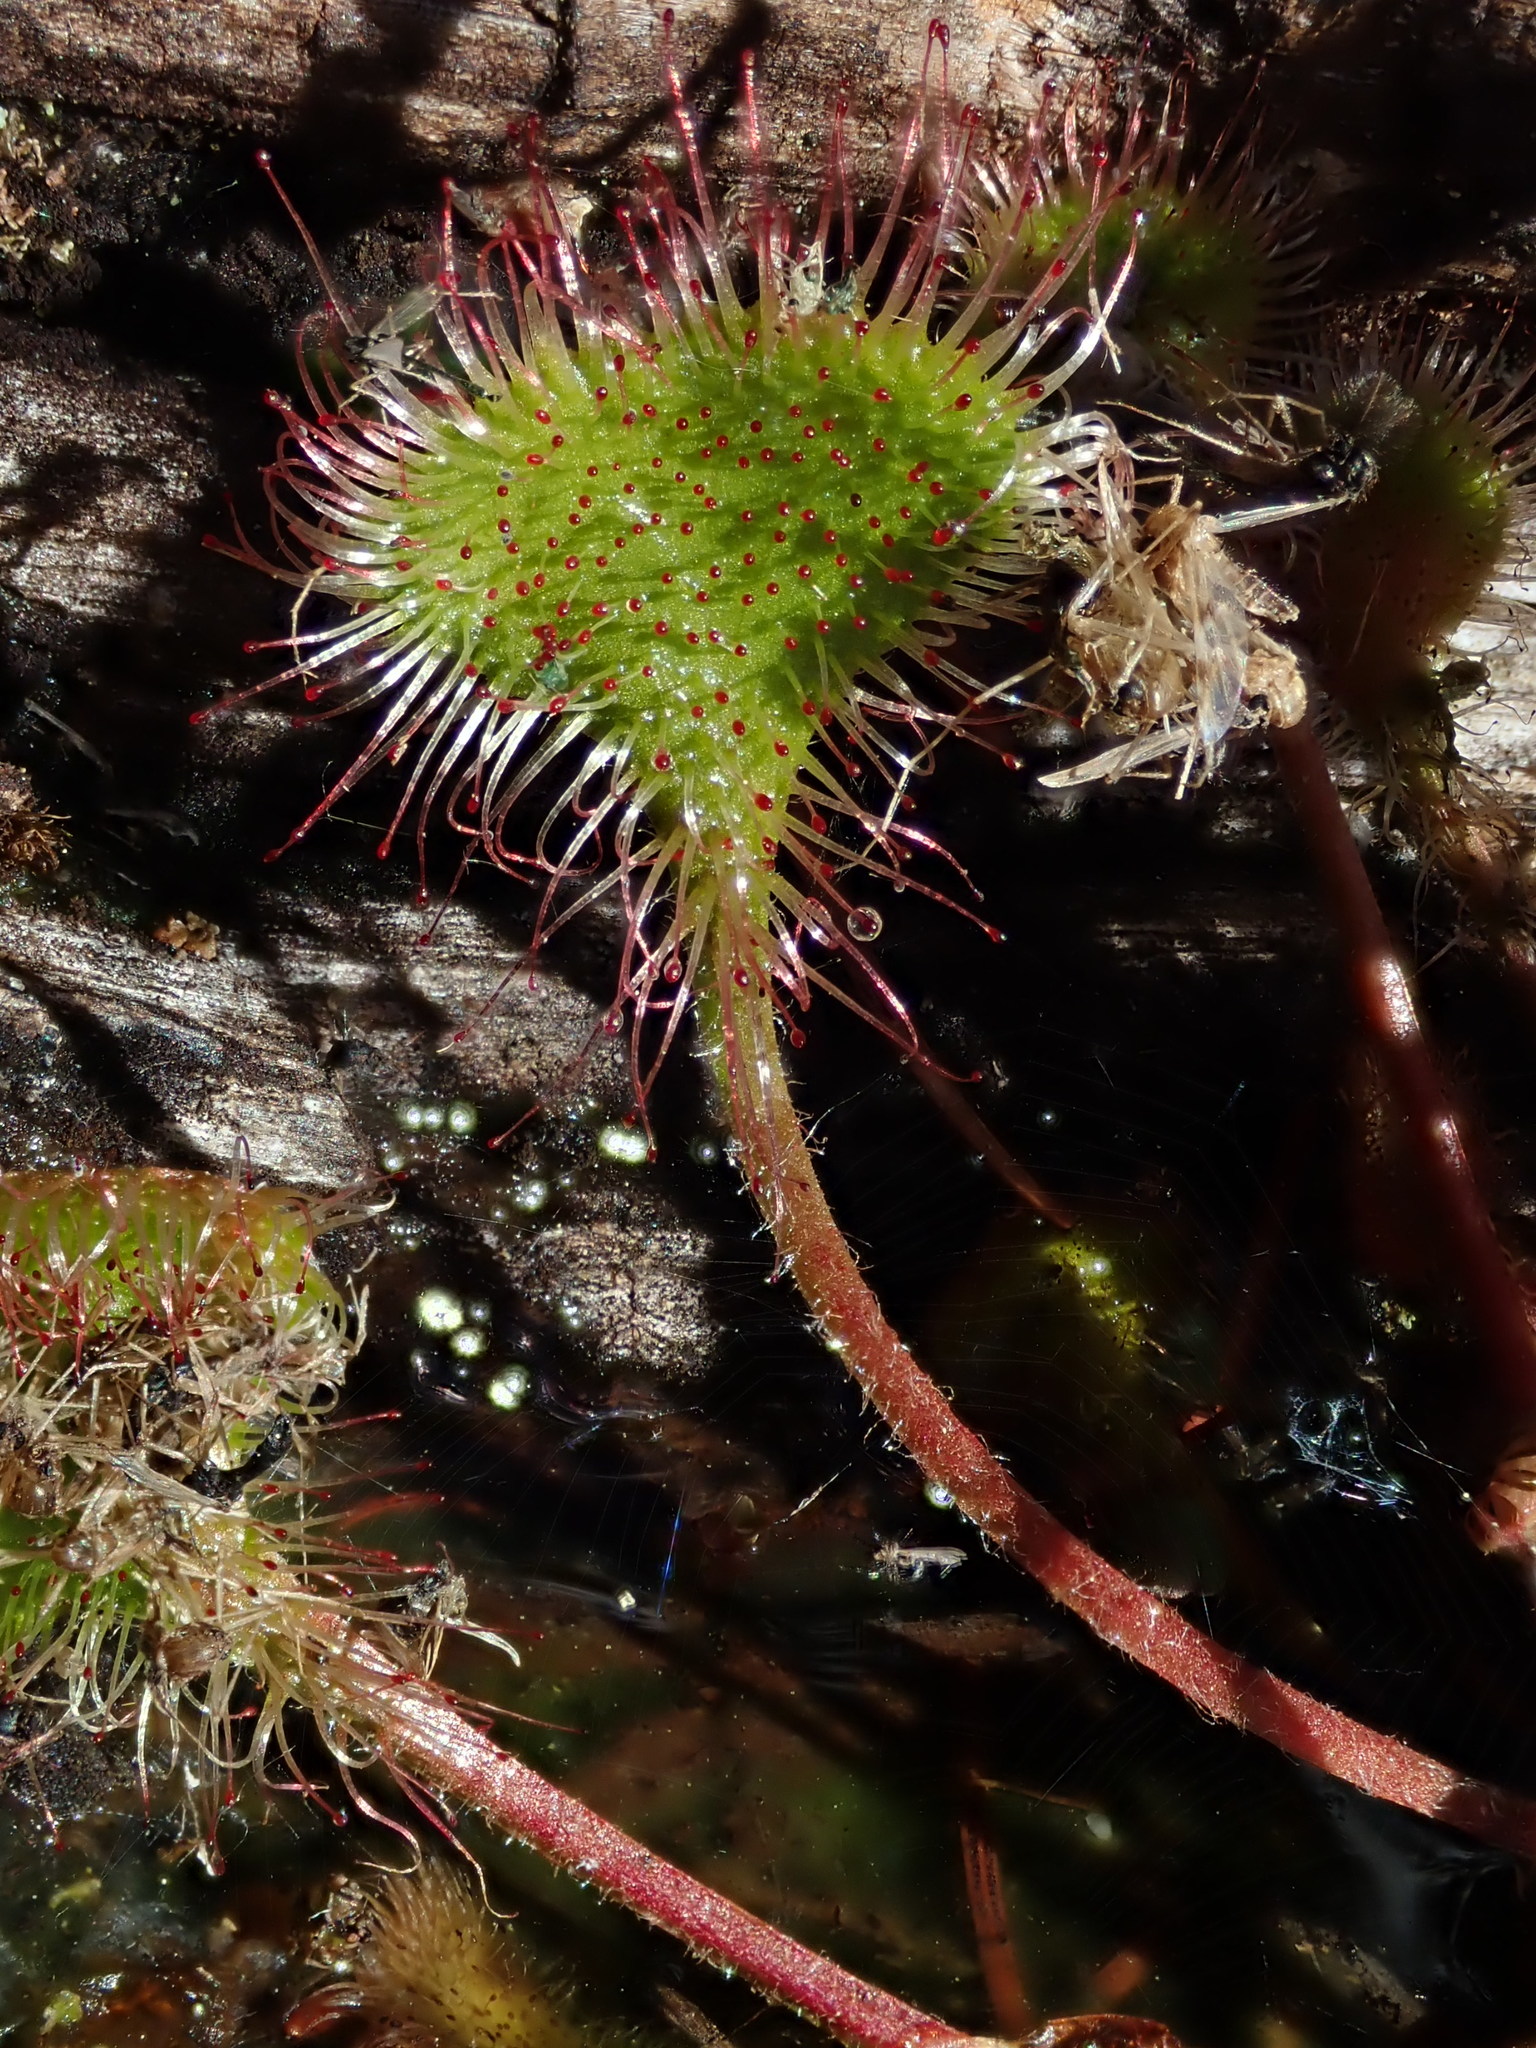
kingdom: Plantae
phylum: Tracheophyta
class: Magnoliopsida
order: Caryophyllales
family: Droseraceae
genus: Drosera
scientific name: Drosera rotundifolia
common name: Round-leaved sundew
